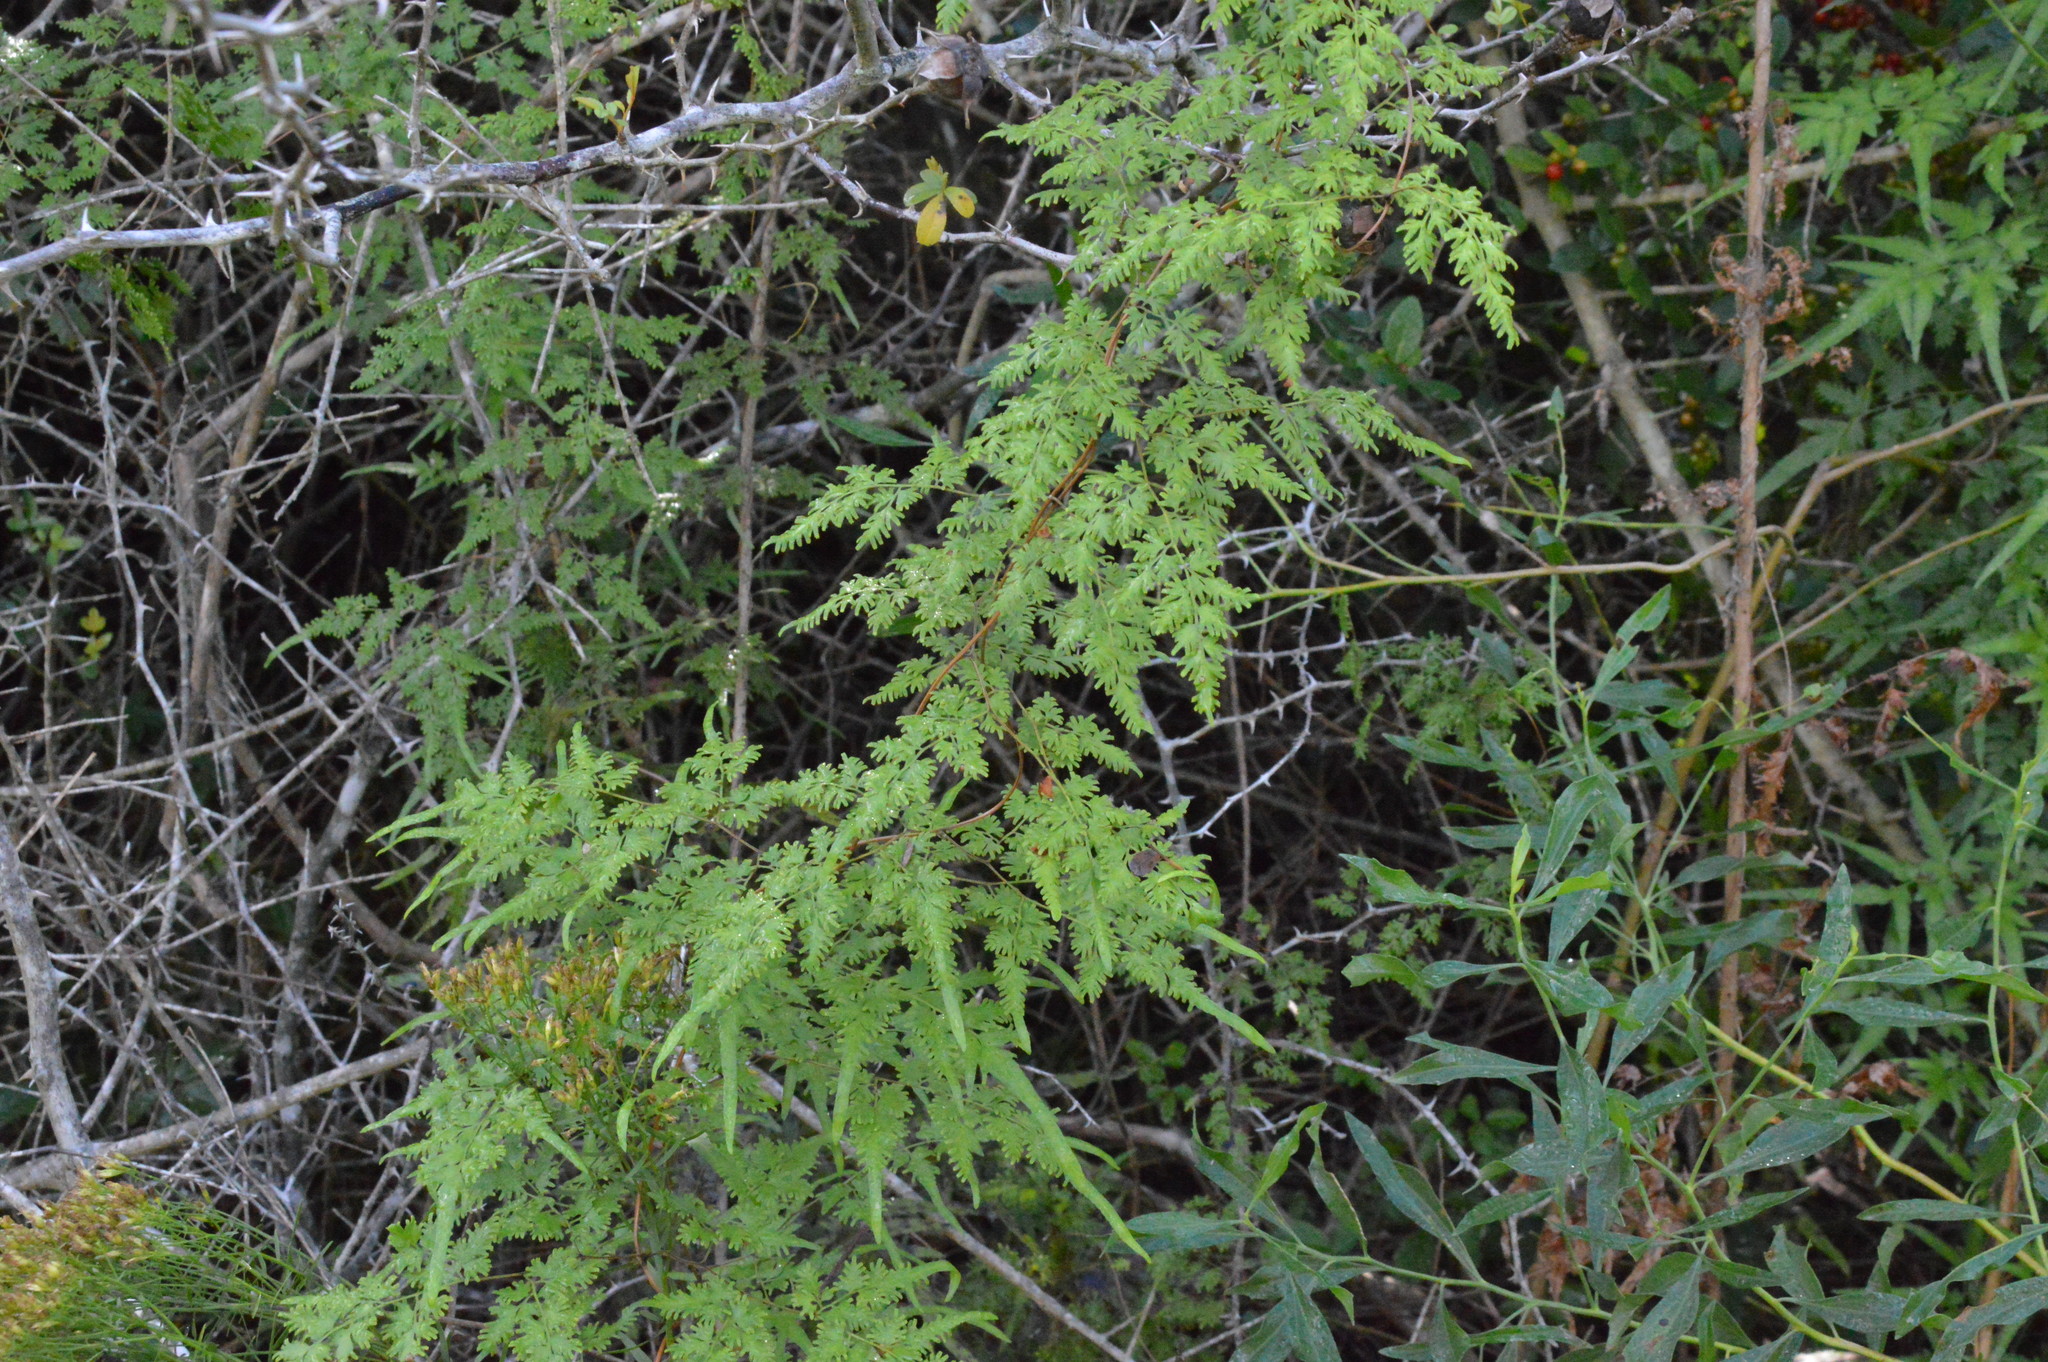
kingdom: Plantae
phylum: Tracheophyta
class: Polypodiopsida
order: Schizaeales
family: Lygodiaceae
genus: Lygodium
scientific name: Lygodium japonicum
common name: Japanese climbing fern
